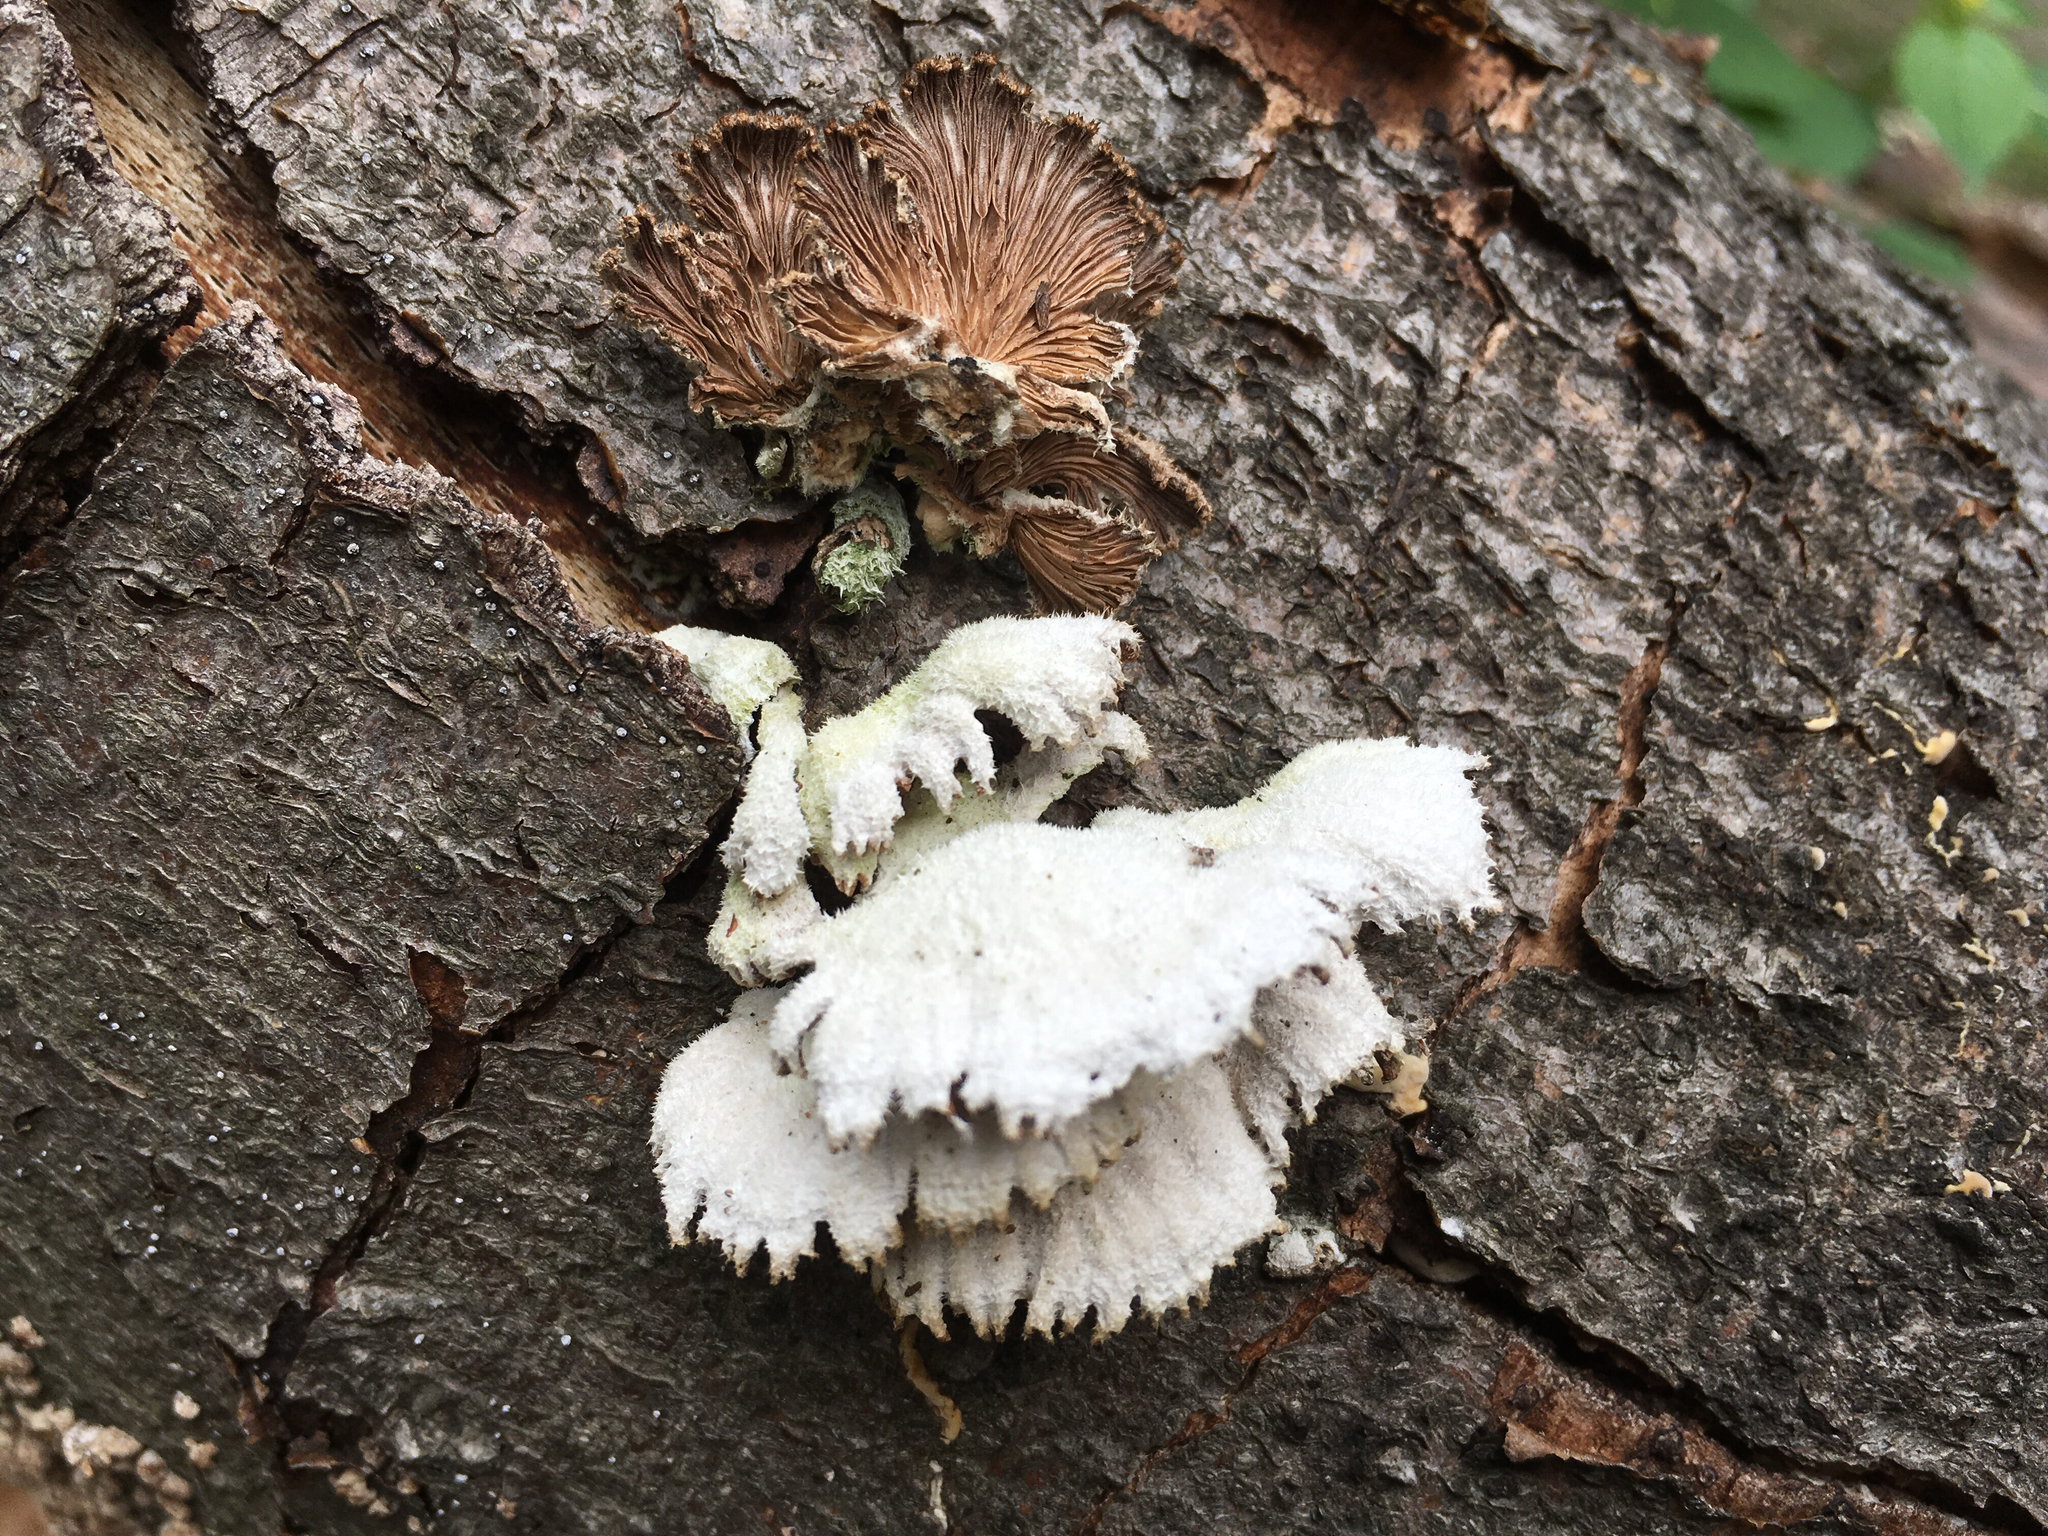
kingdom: Fungi
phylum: Basidiomycota
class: Agaricomycetes
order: Agaricales
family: Schizophyllaceae
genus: Schizophyllum
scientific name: Schizophyllum commune
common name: Common porecrust
